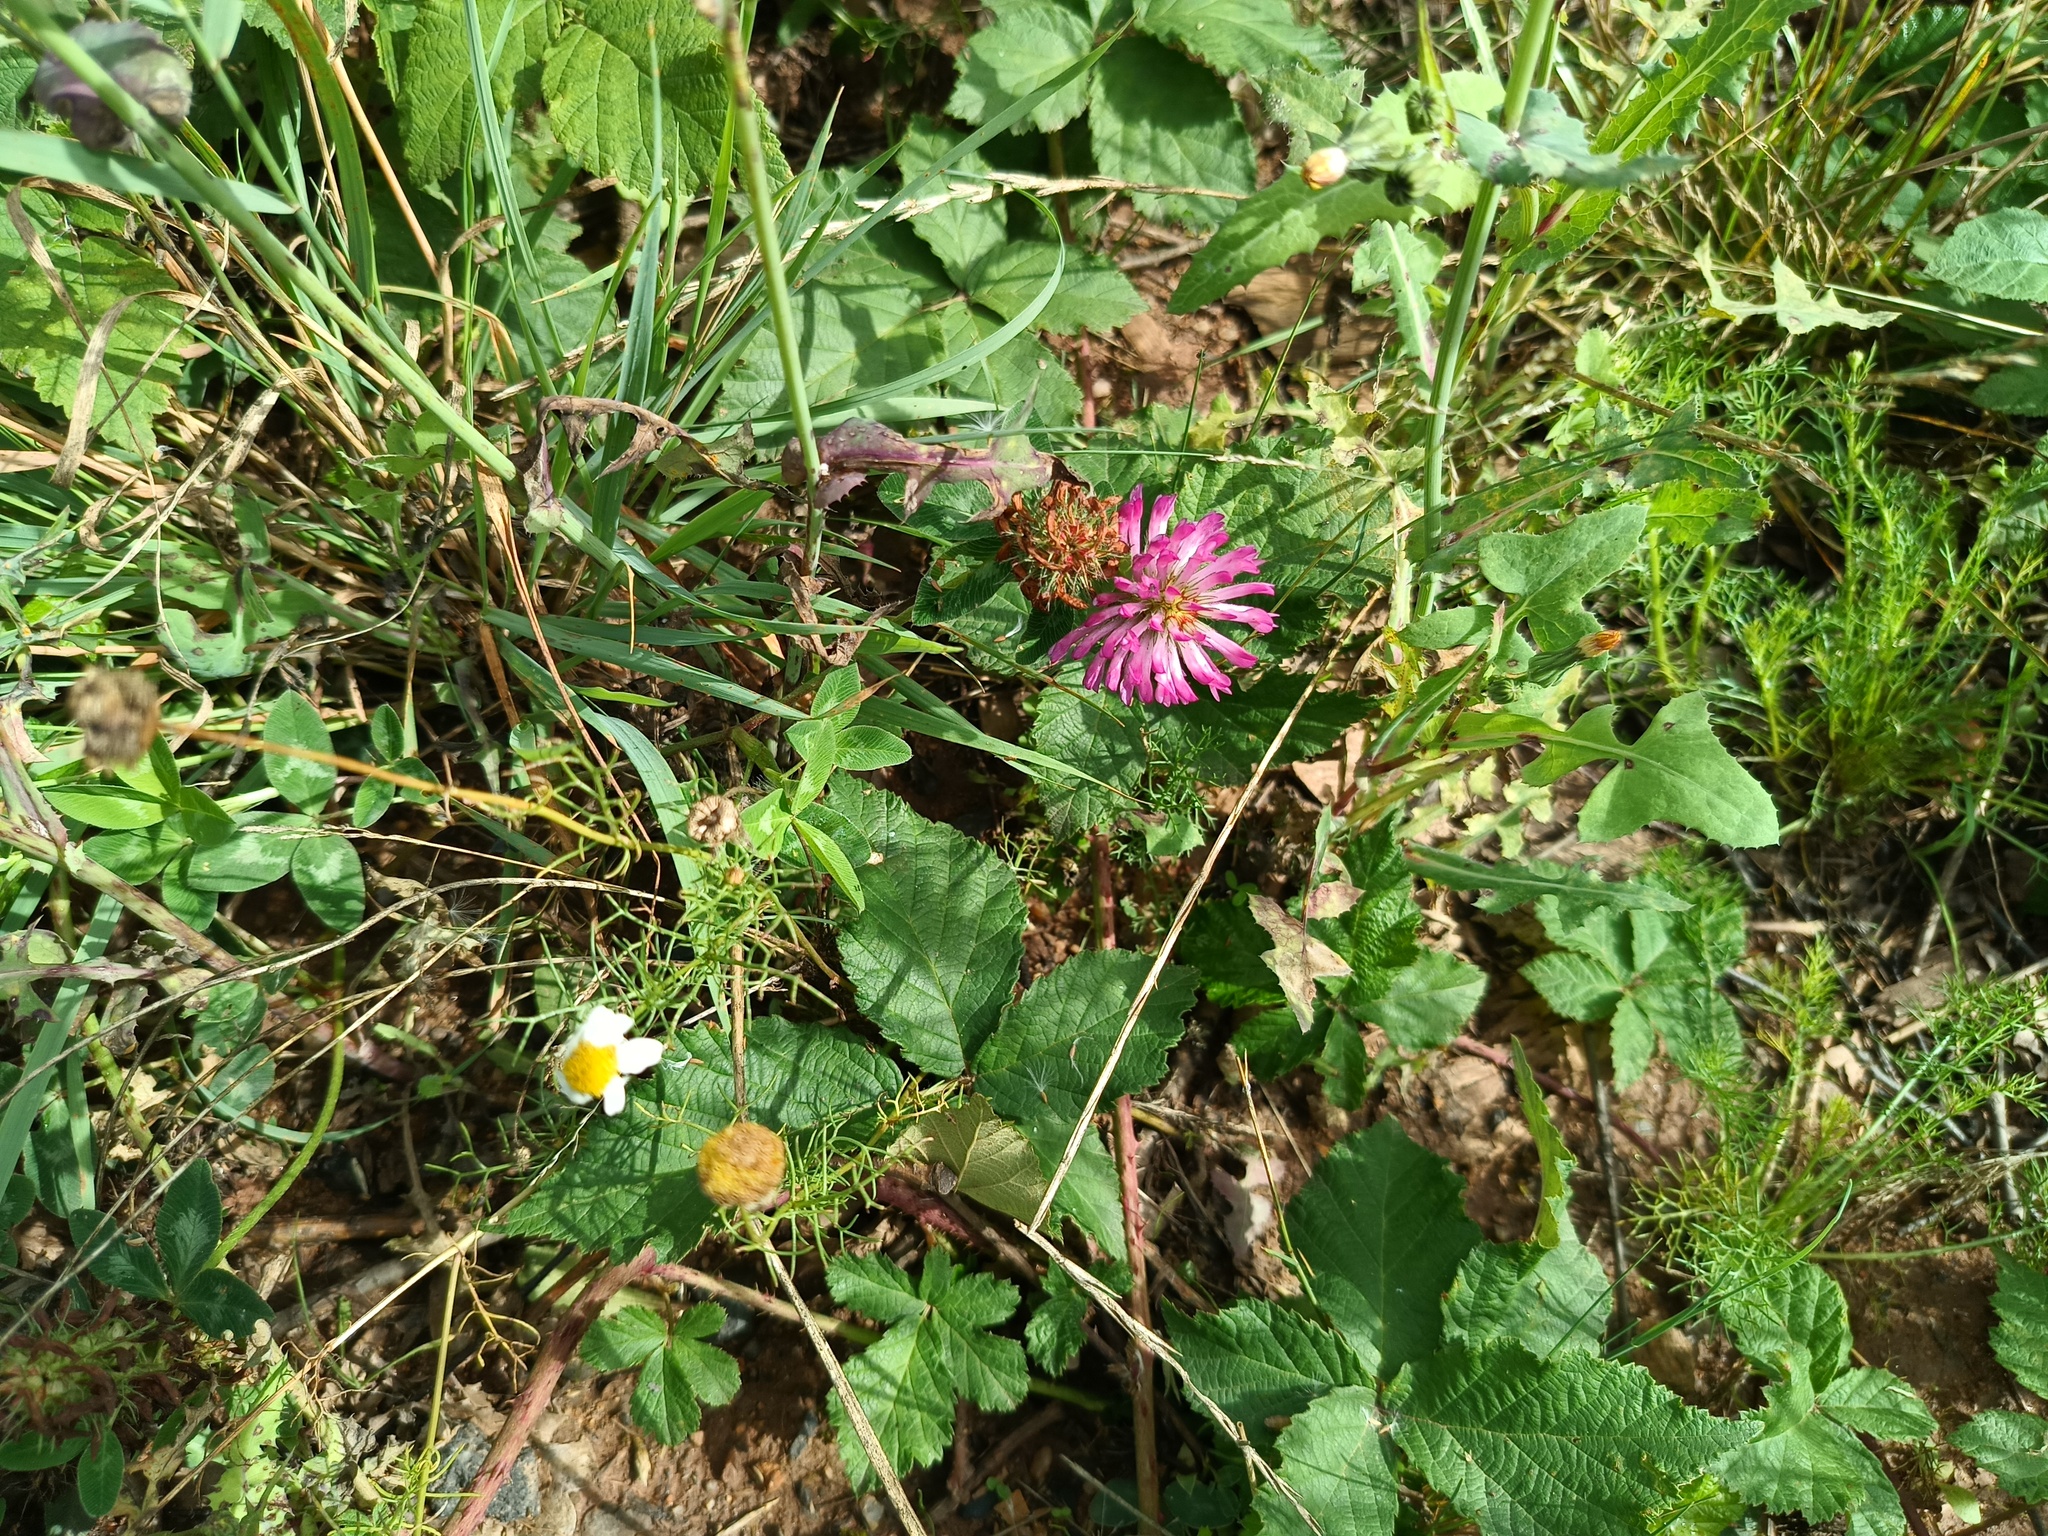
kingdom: Plantae
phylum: Tracheophyta
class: Magnoliopsida
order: Fabales
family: Fabaceae
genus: Trifolium
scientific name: Trifolium medium
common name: Zigzag clover
